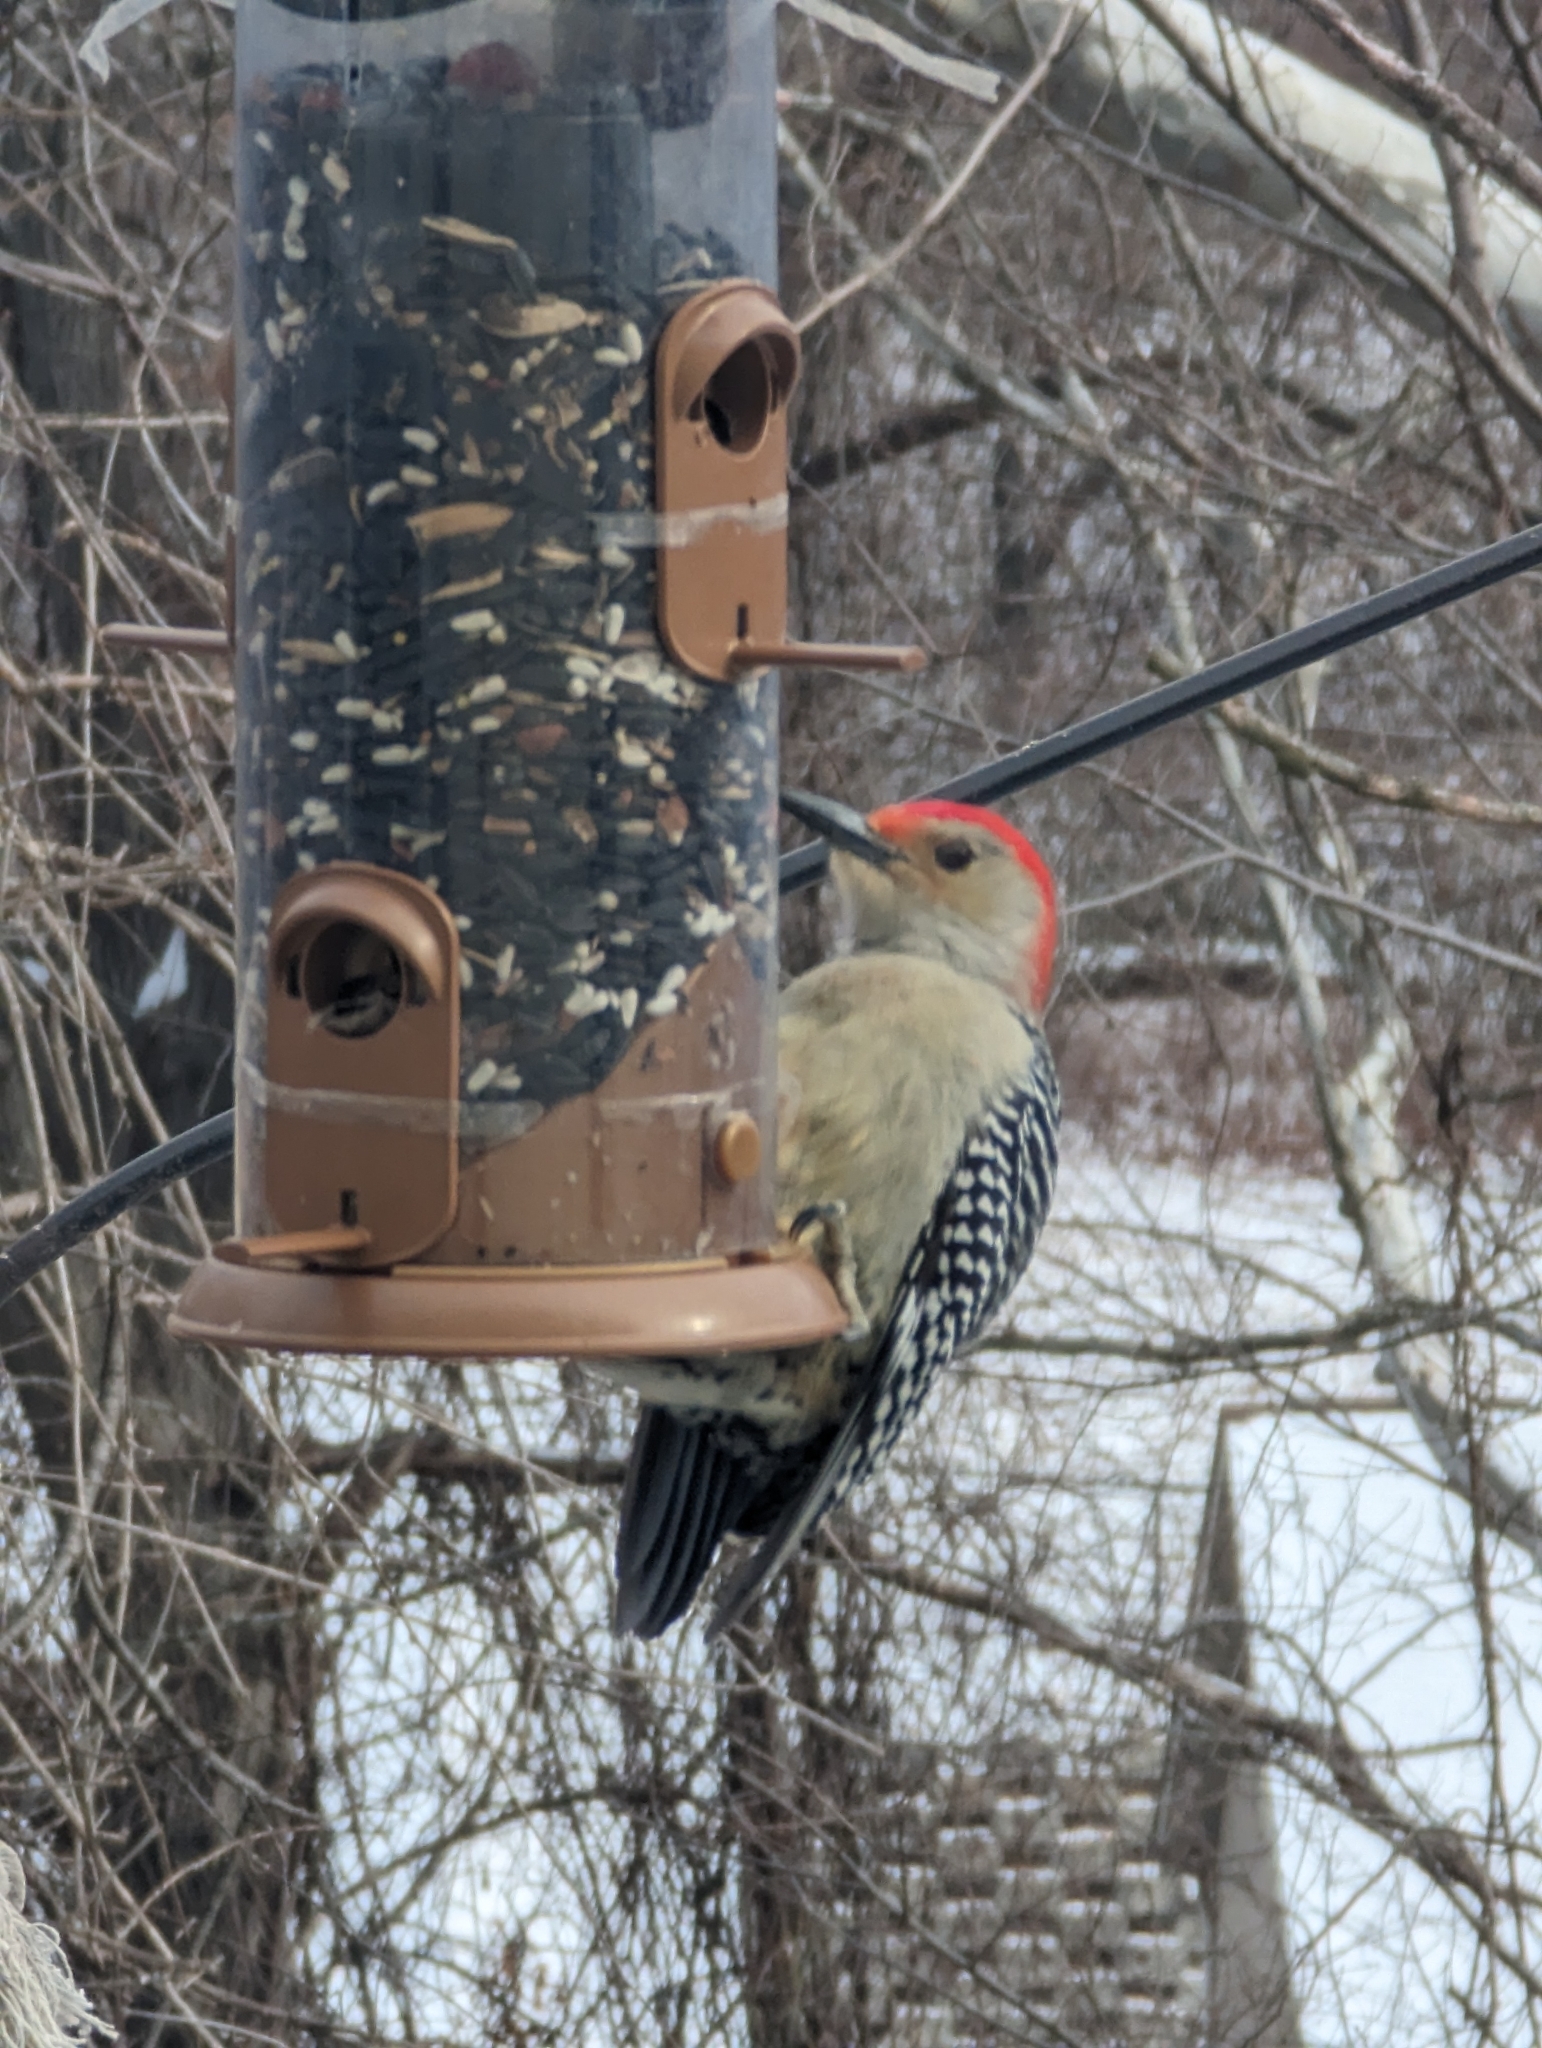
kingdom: Animalia
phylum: Chordata
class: Aves
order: Piciformes
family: Picidae
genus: Melanerpes
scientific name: Melanerpes carolinus
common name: Red-bellied woodpecker
